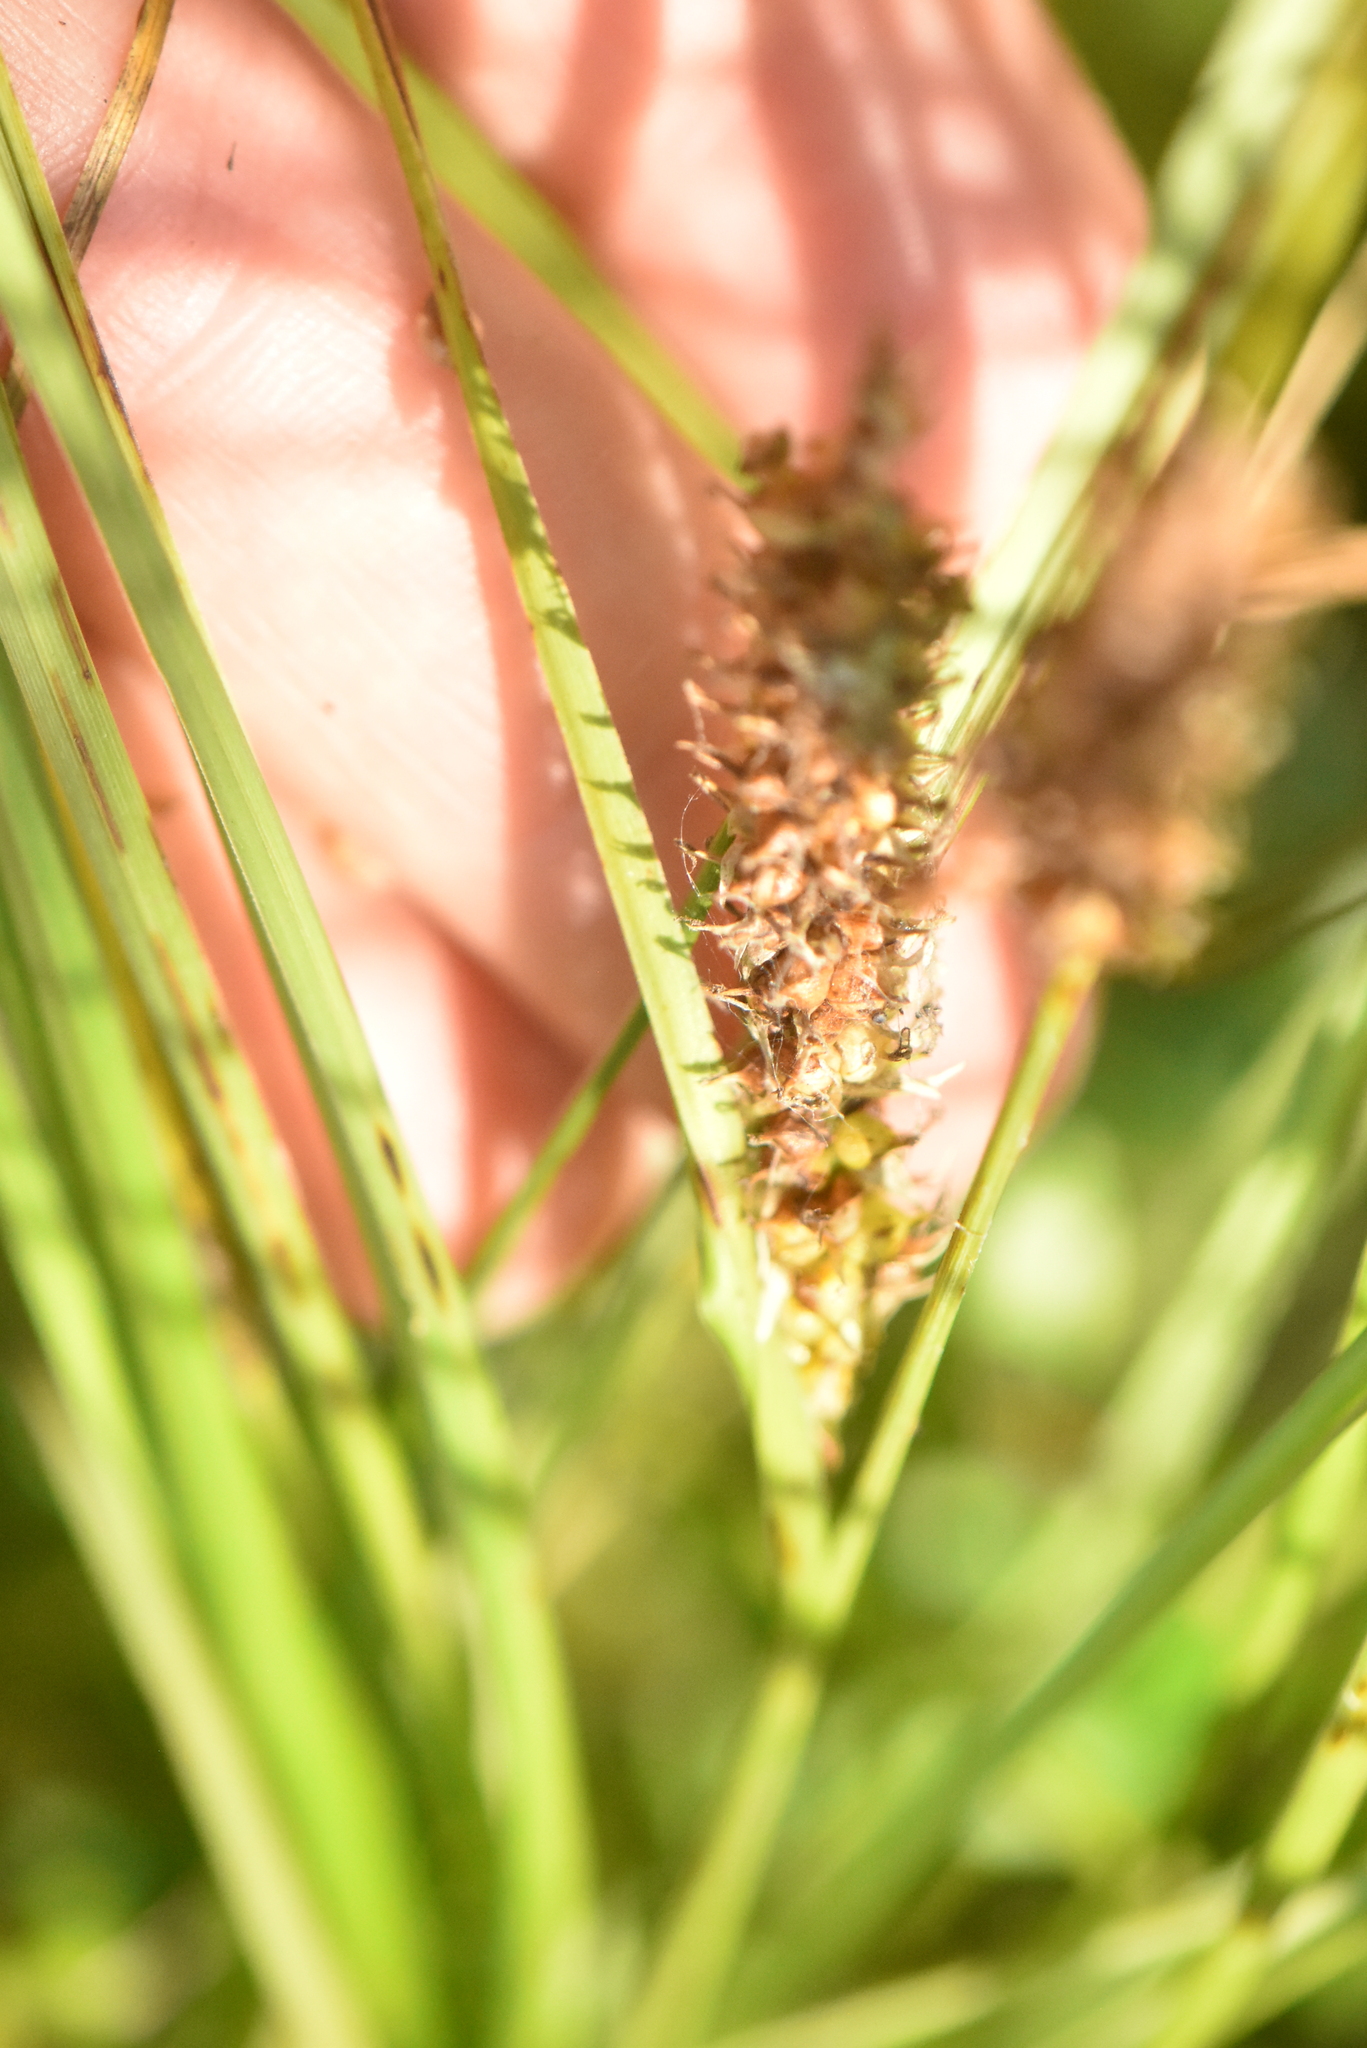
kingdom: Plantae
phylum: Tracheophyta
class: Liliopsida
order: Poales
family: Cyperaceae
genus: Carex
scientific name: Carex rostrata
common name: Bottle sedge
